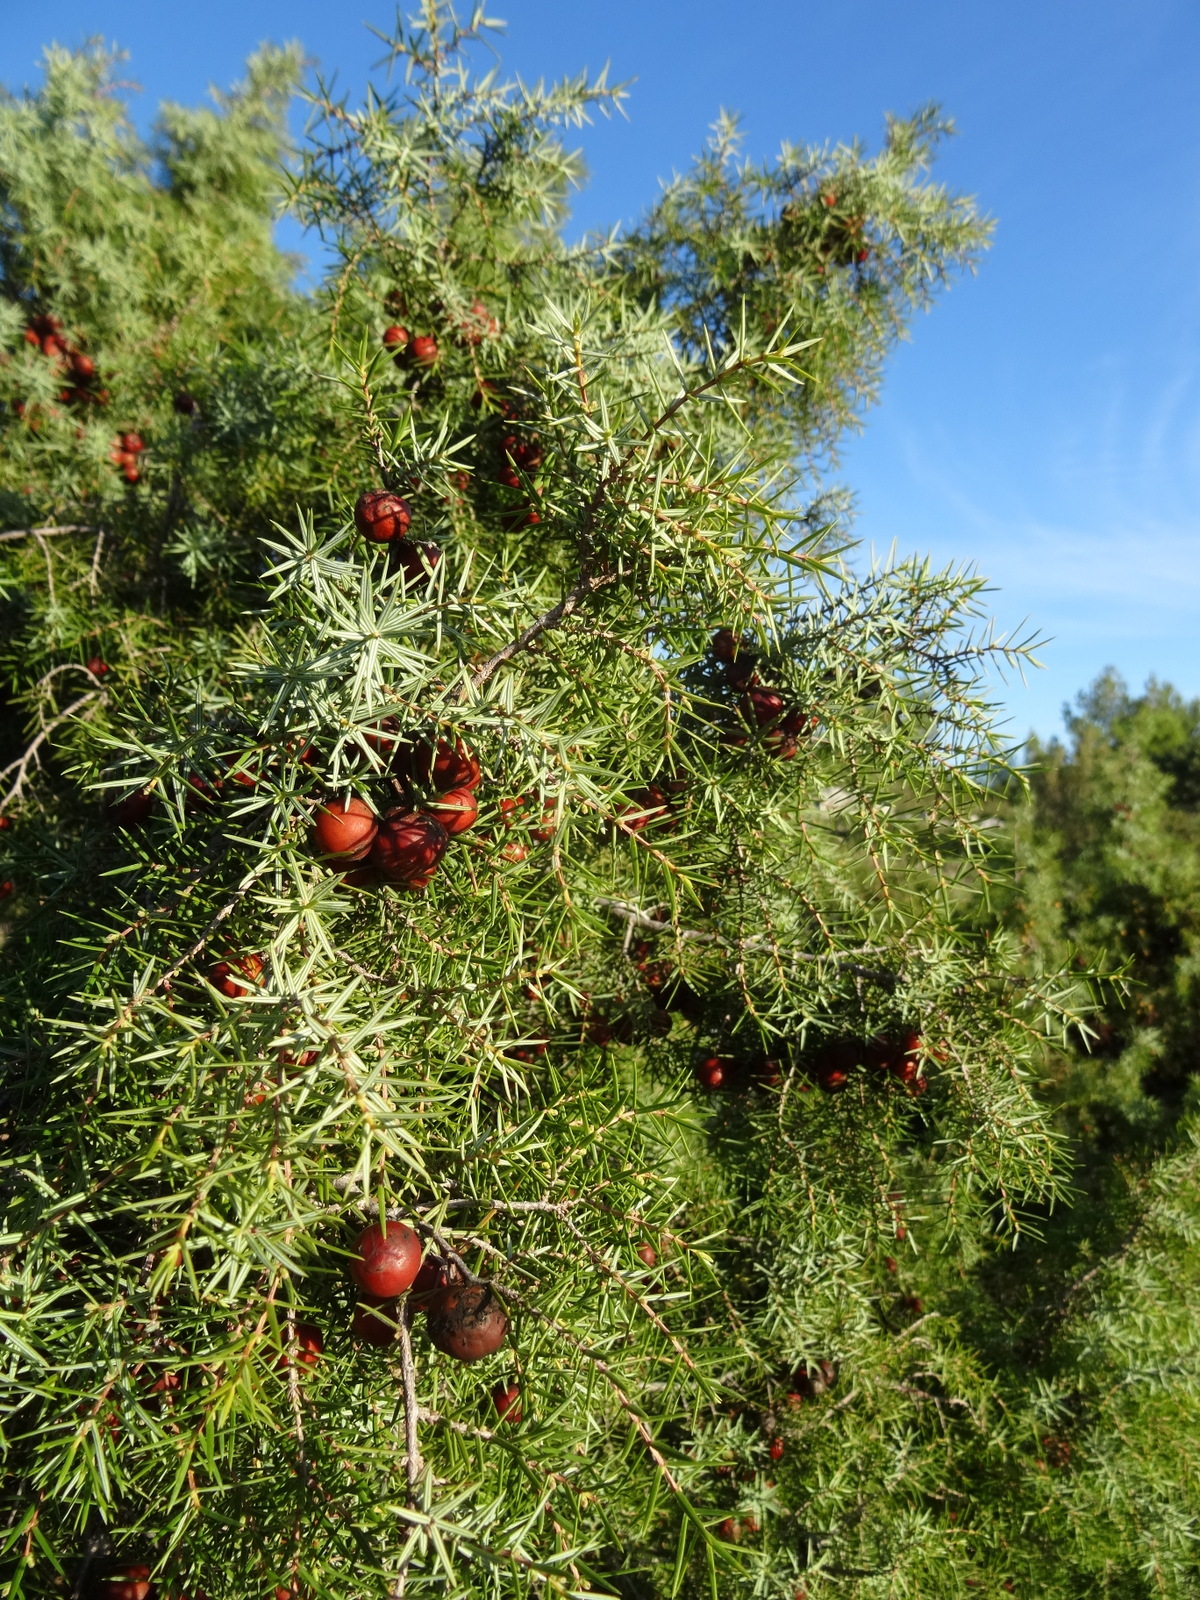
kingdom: Plantae
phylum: Tracheophyta
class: Pinopsida
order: Pinales
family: Cupressaceae
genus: Juniperus
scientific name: Juniperus oxycedrus
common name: Prickly juniper
